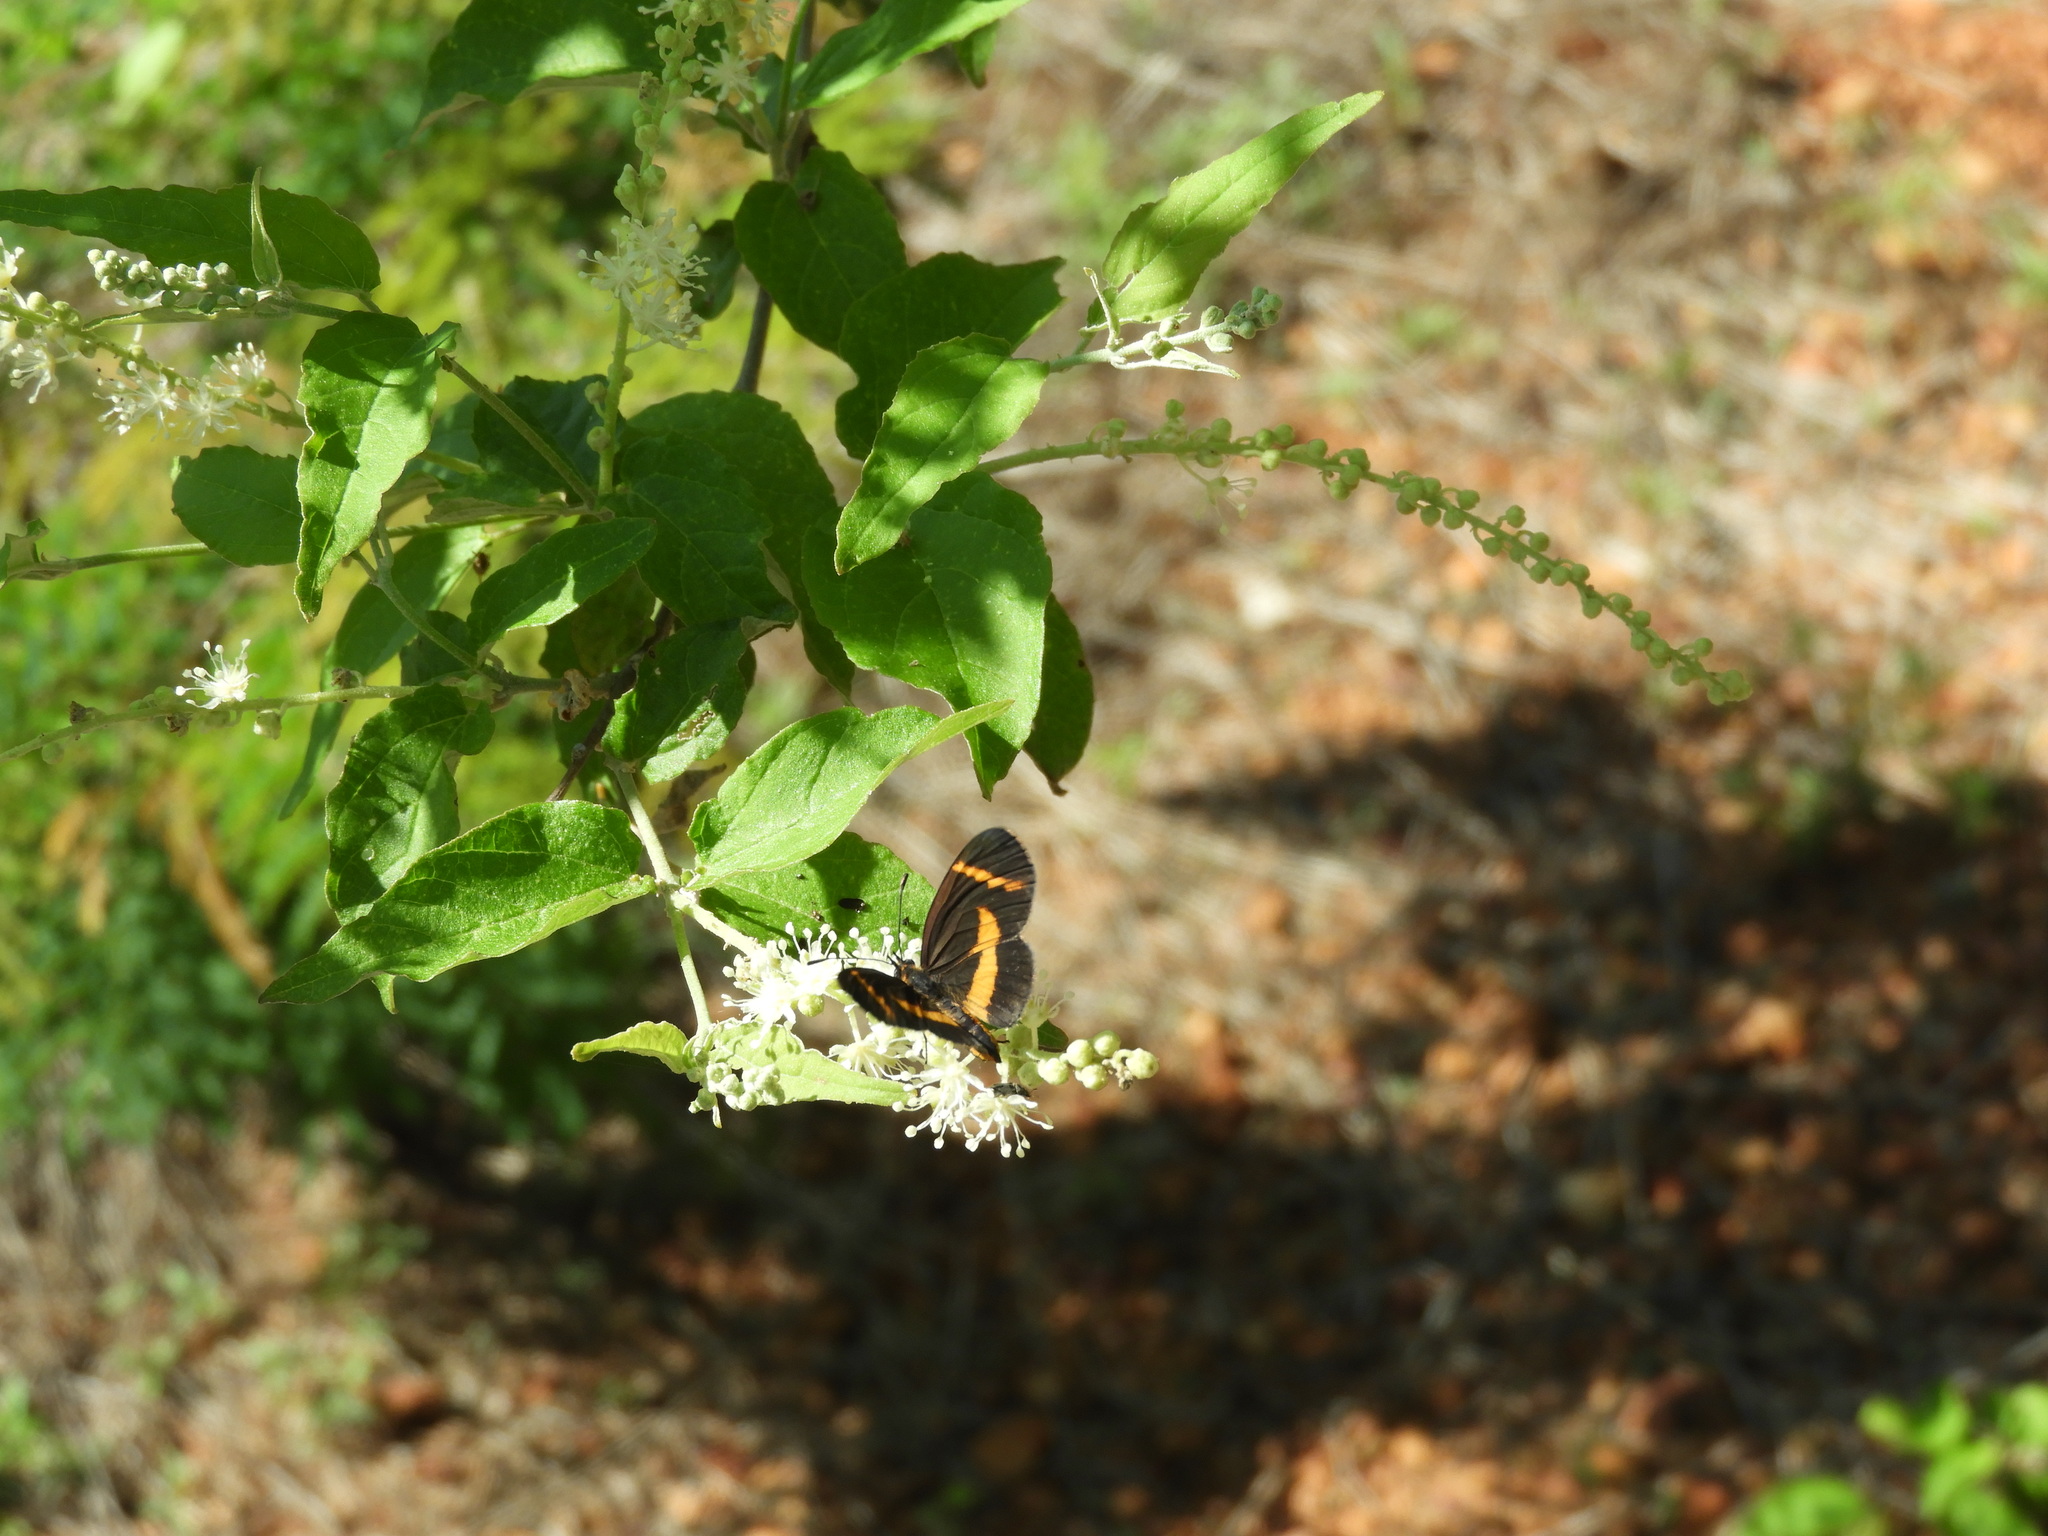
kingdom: Animalia
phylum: Arthropoda
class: Insecta
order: Lepidoptera
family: Nymphalidae
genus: Microtia
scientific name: Microtia elva
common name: Elf
